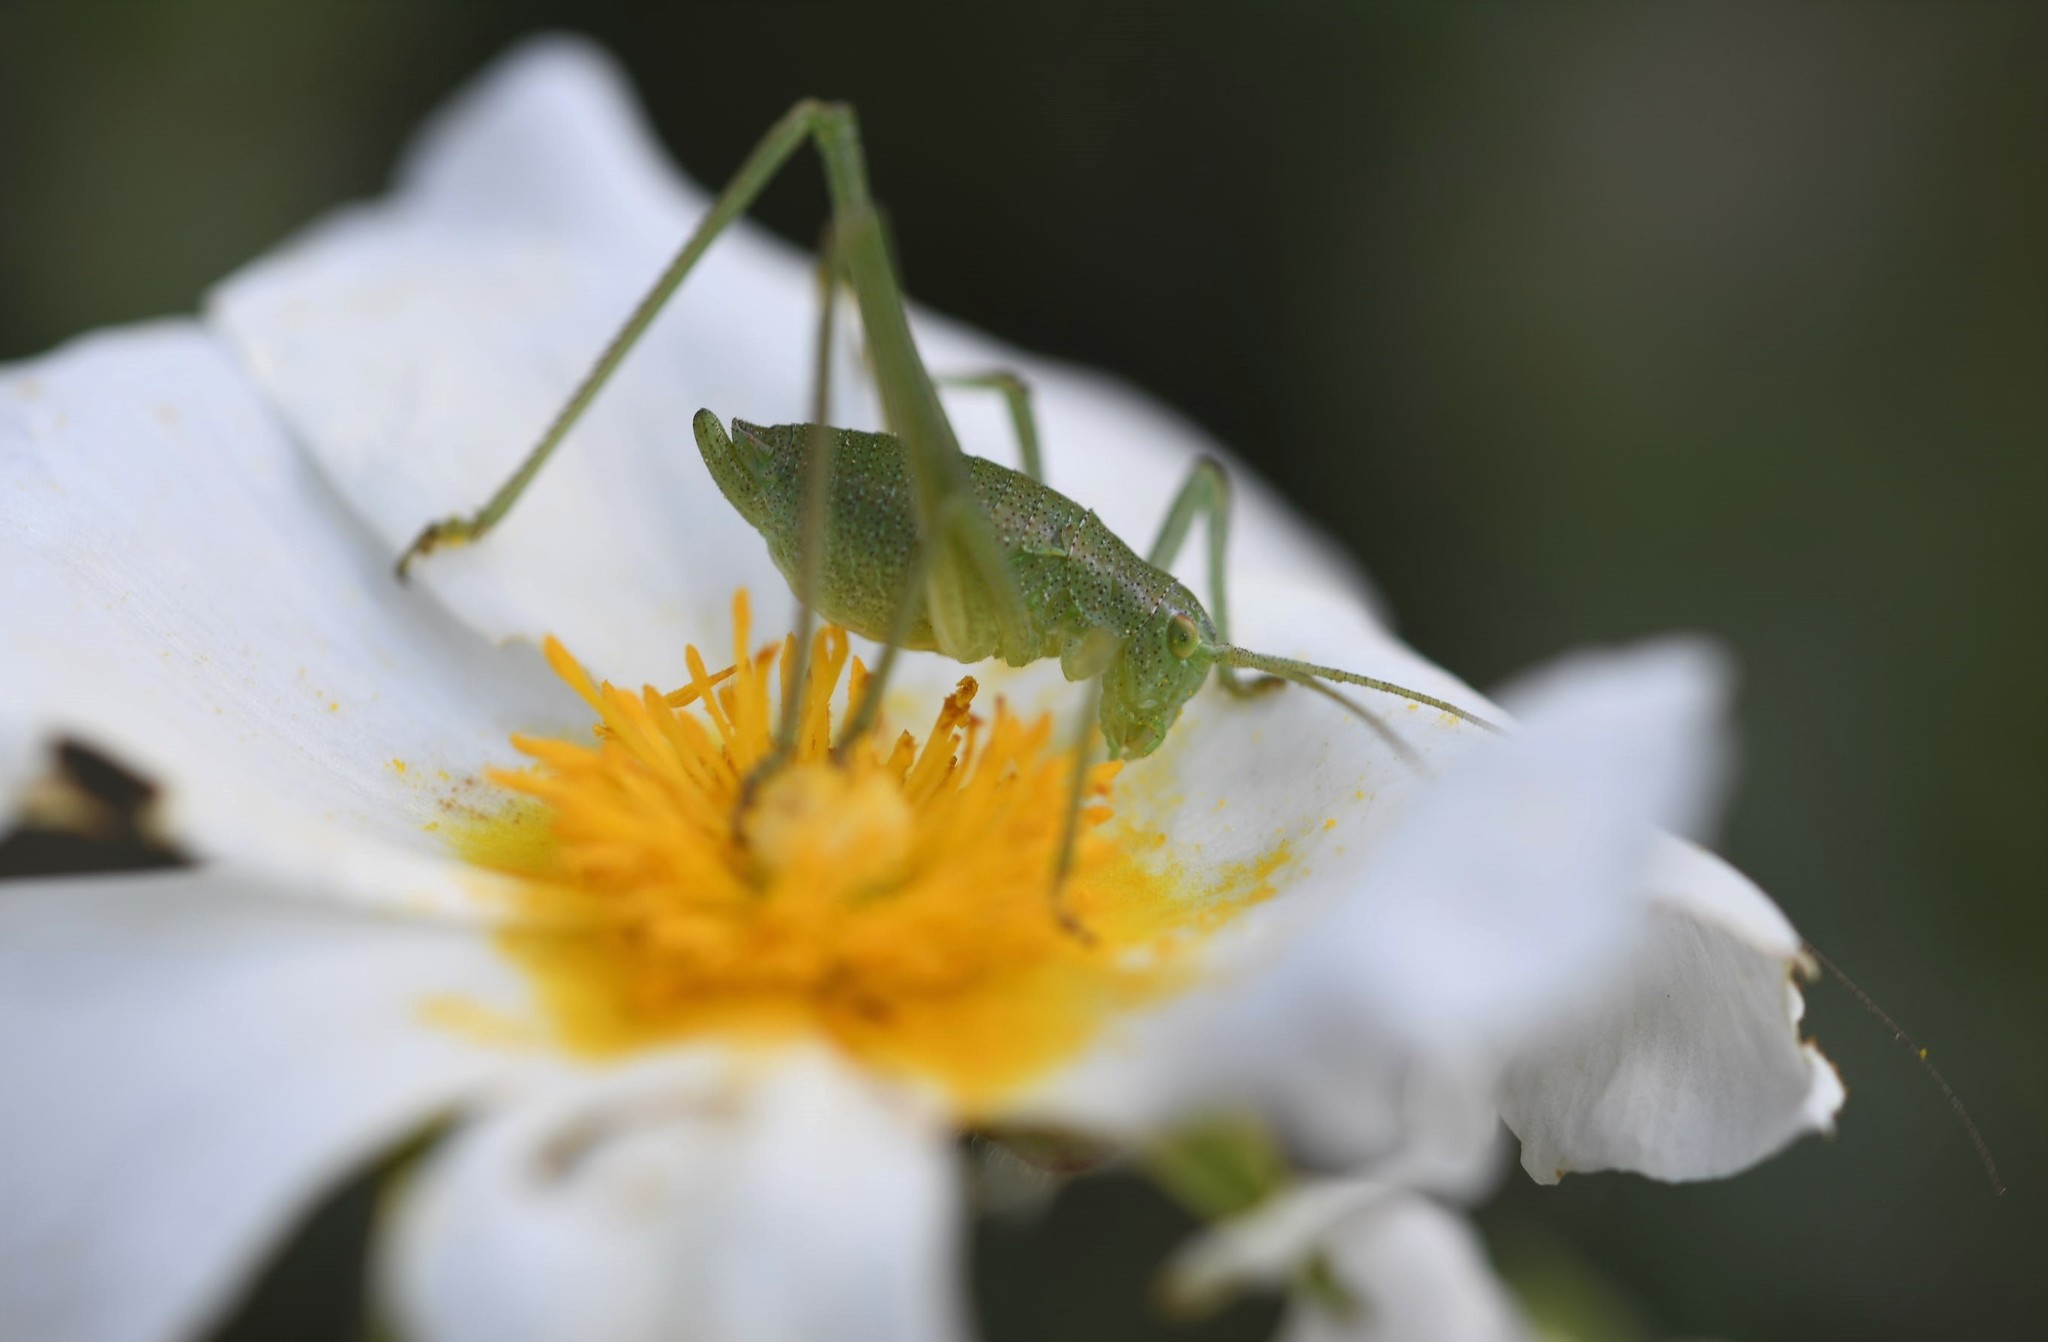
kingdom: Animalia
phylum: Arthropoda
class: Insecta
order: Orthoptera
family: Tettigoniidae
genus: Odontura
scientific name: Odontura glabricauda
